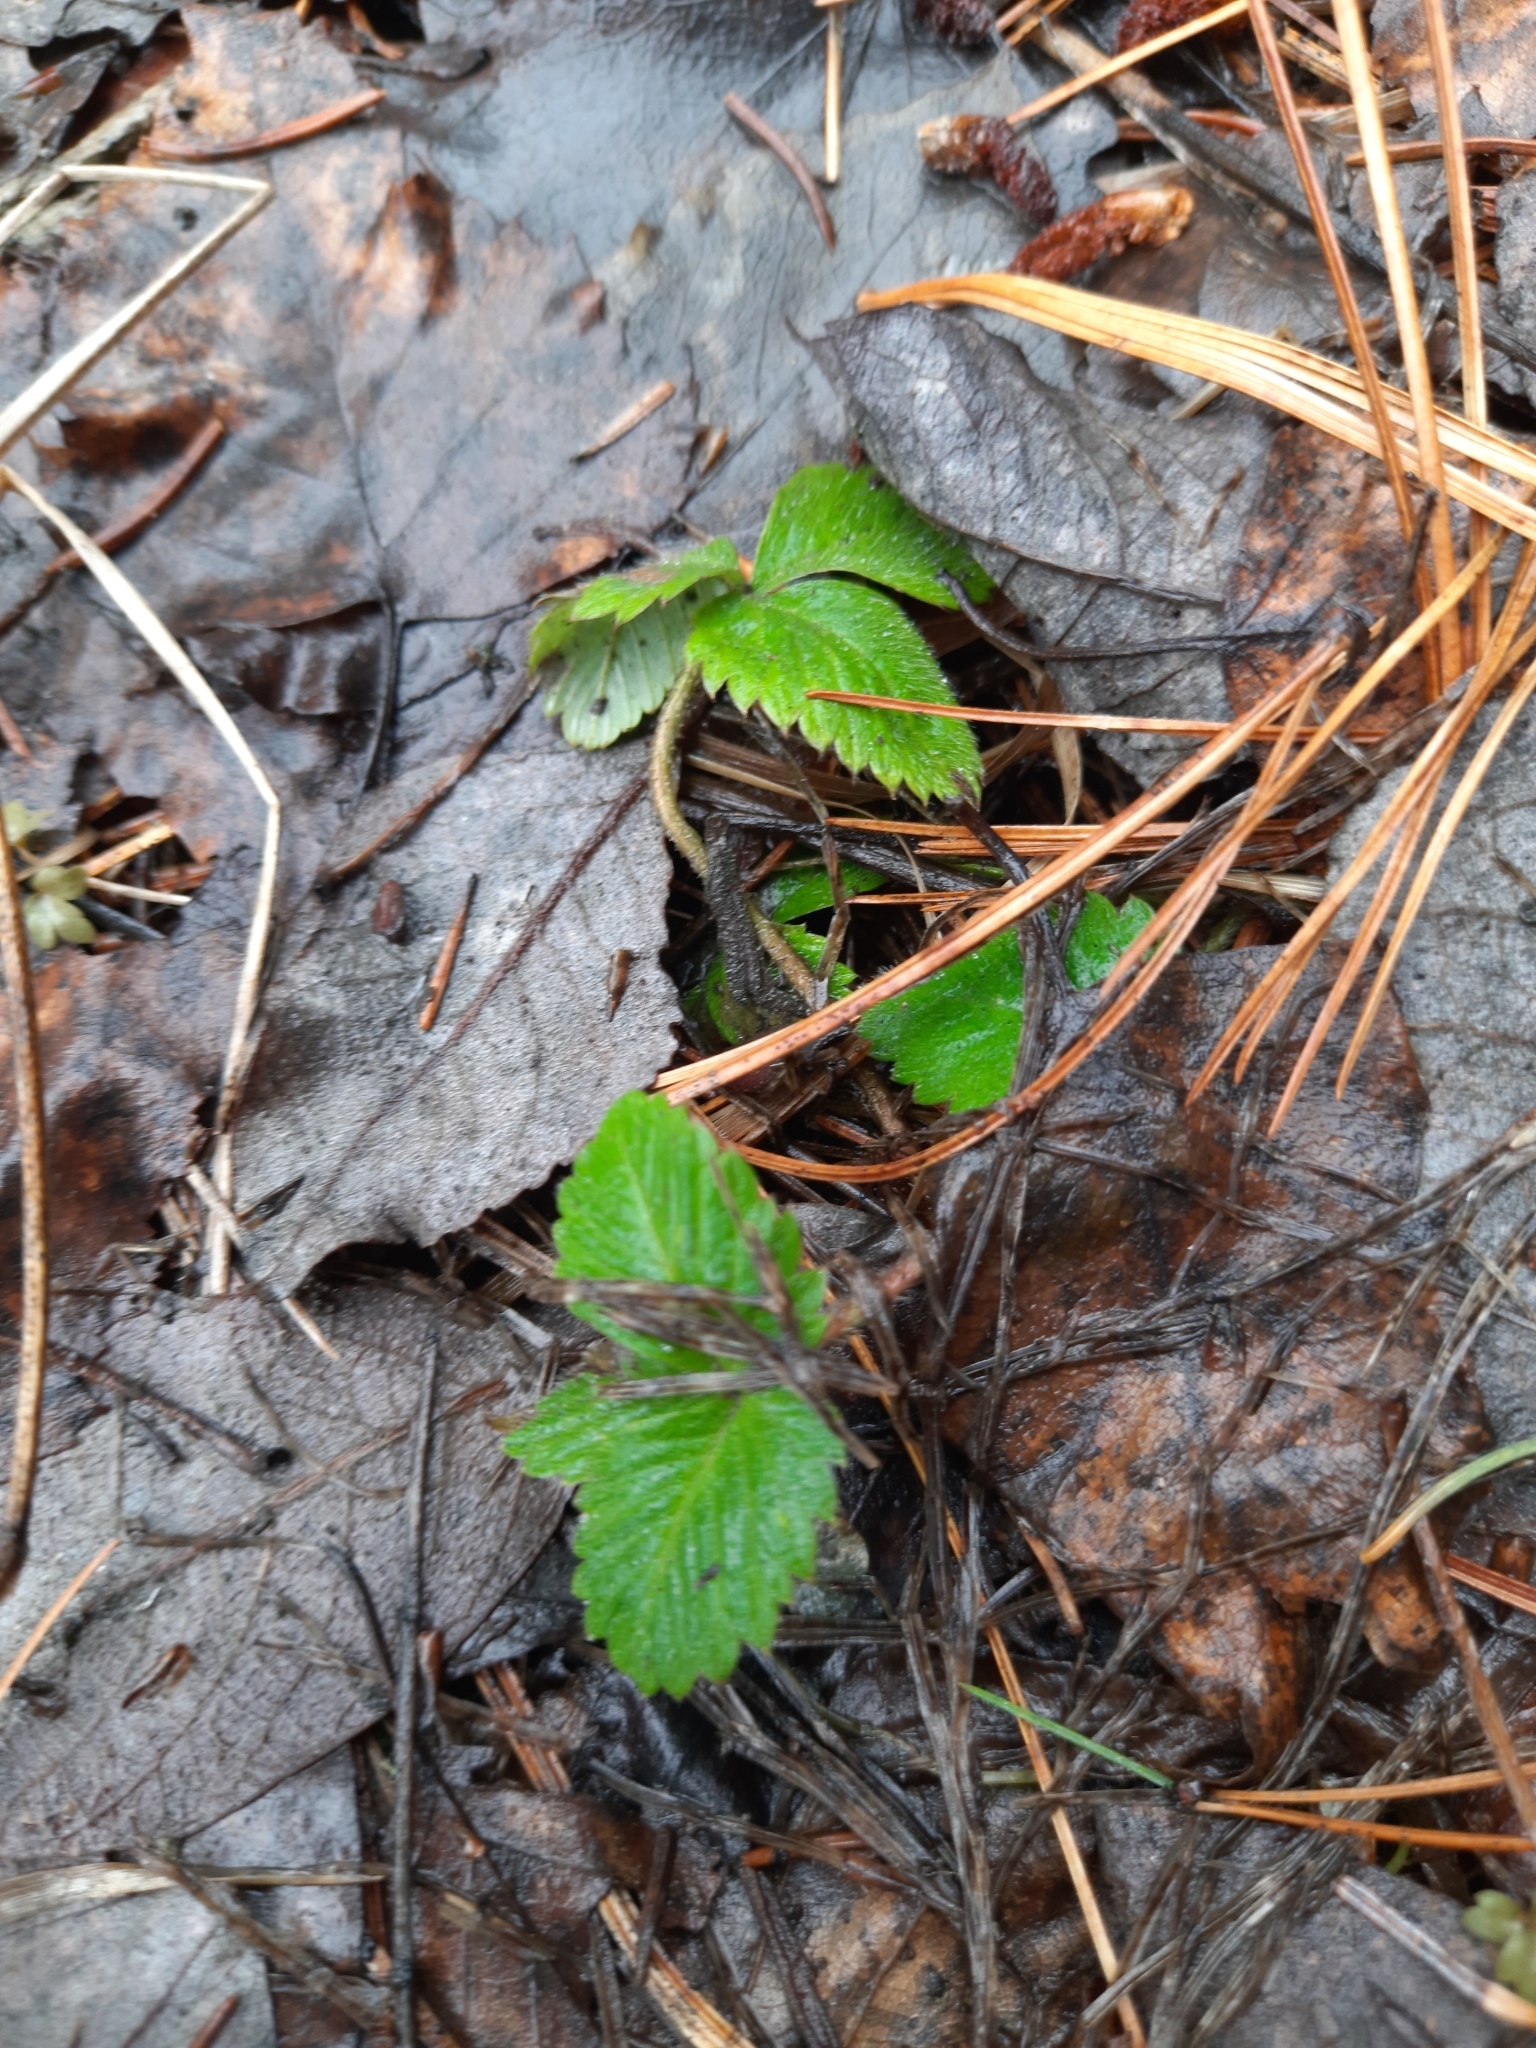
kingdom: Plantae
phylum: Tracheophyta
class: Magnoliopsida
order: Rosales
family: Rosaceae
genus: Fragaria
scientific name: Fragaria vesca
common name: Wild strawberry
